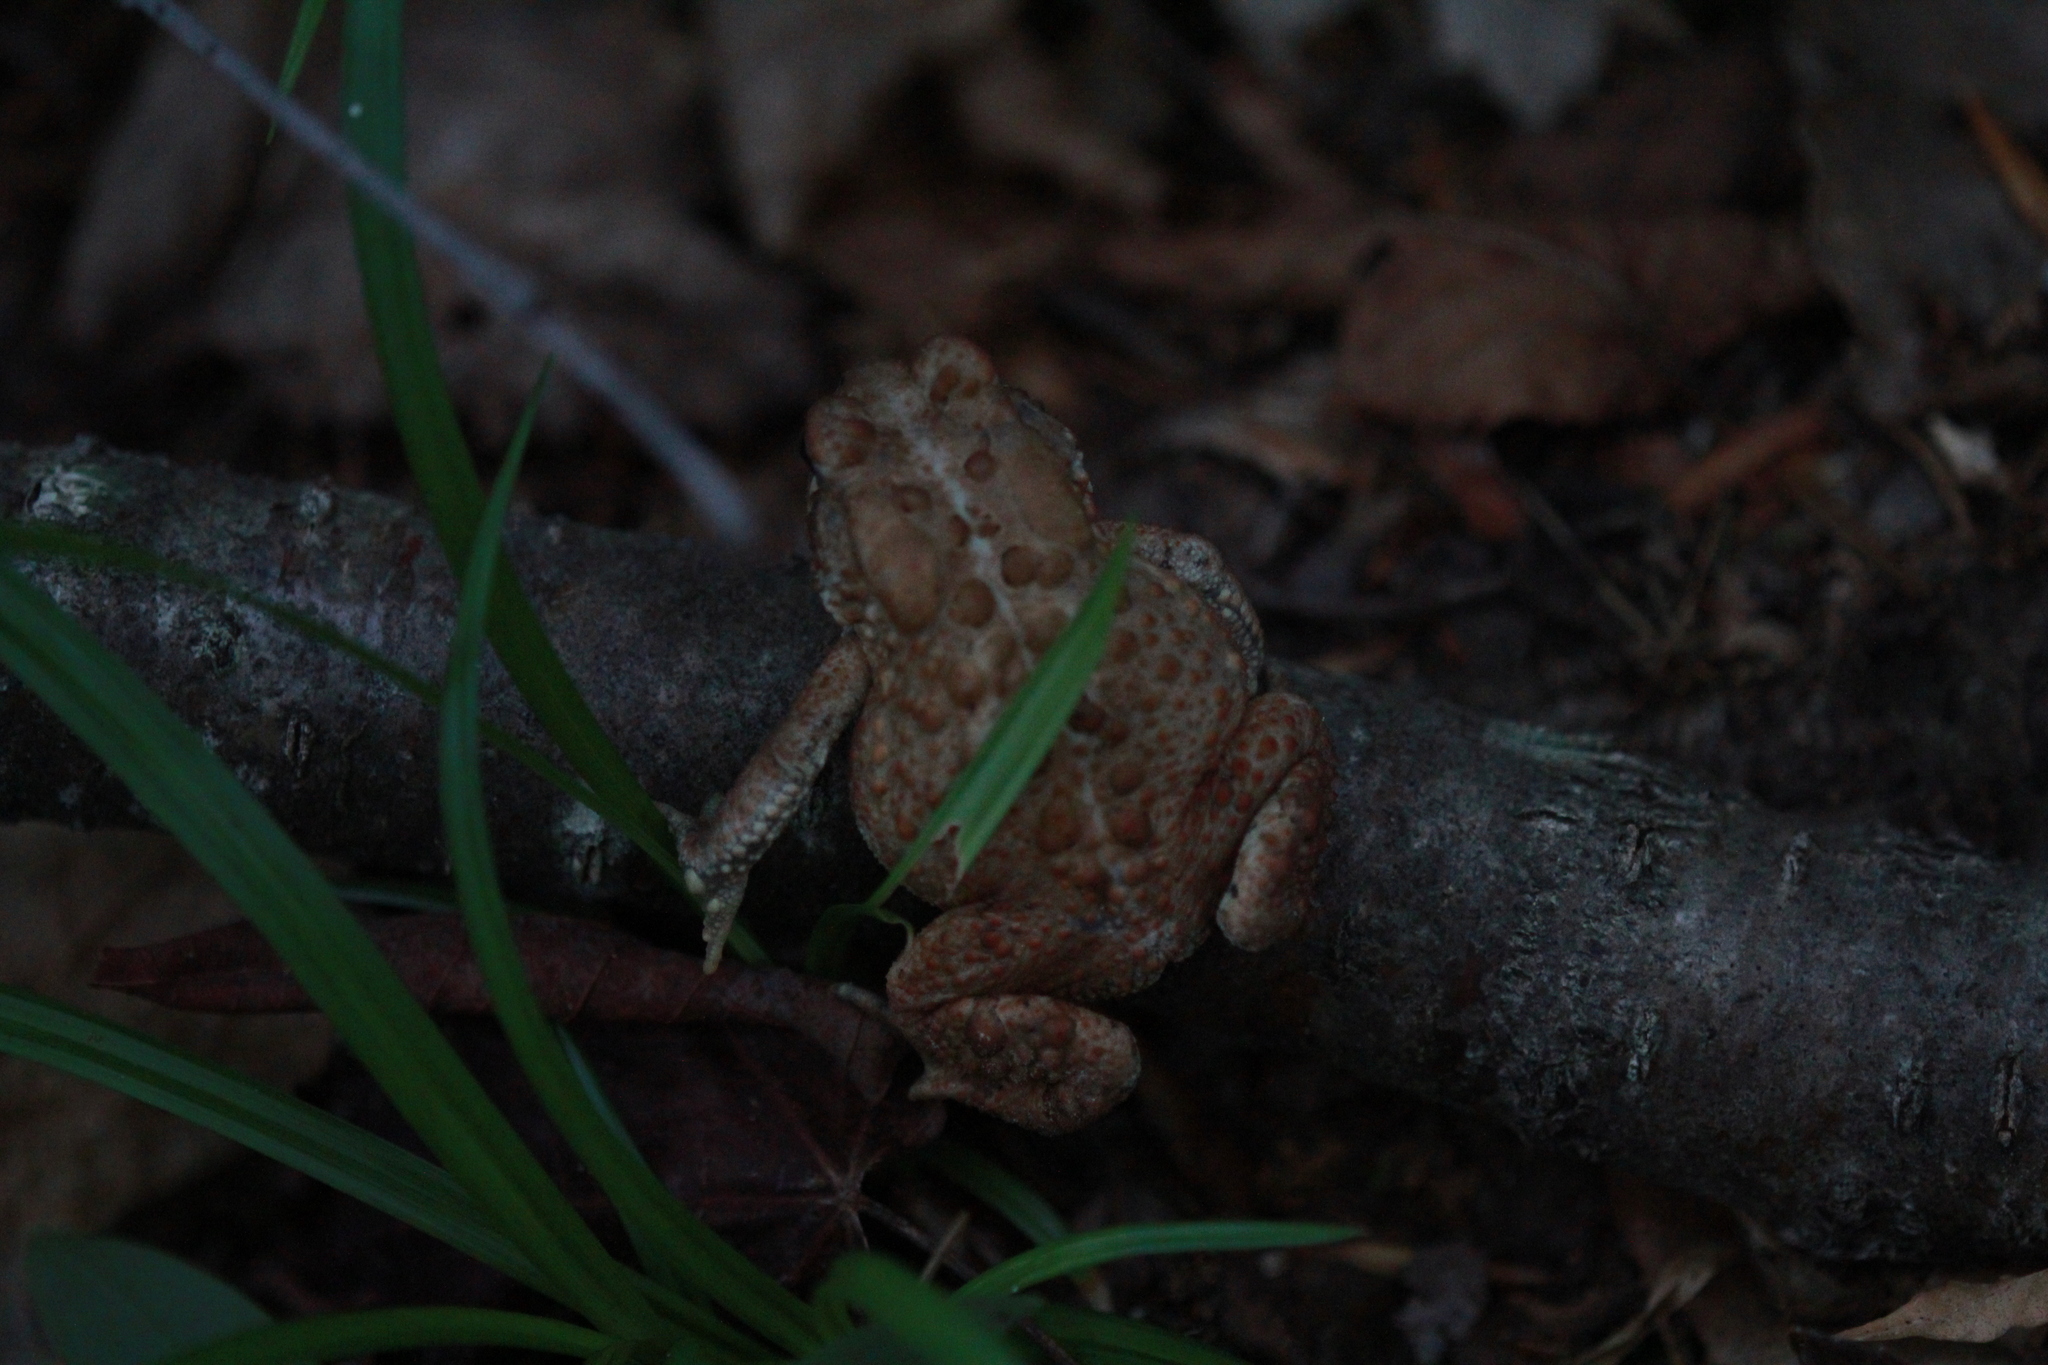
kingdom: Animalia
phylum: Chordata
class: Amphibia
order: Anura
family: Bufonidae
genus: Anaxyrus
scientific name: Anaxyrus americanus
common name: American toad
